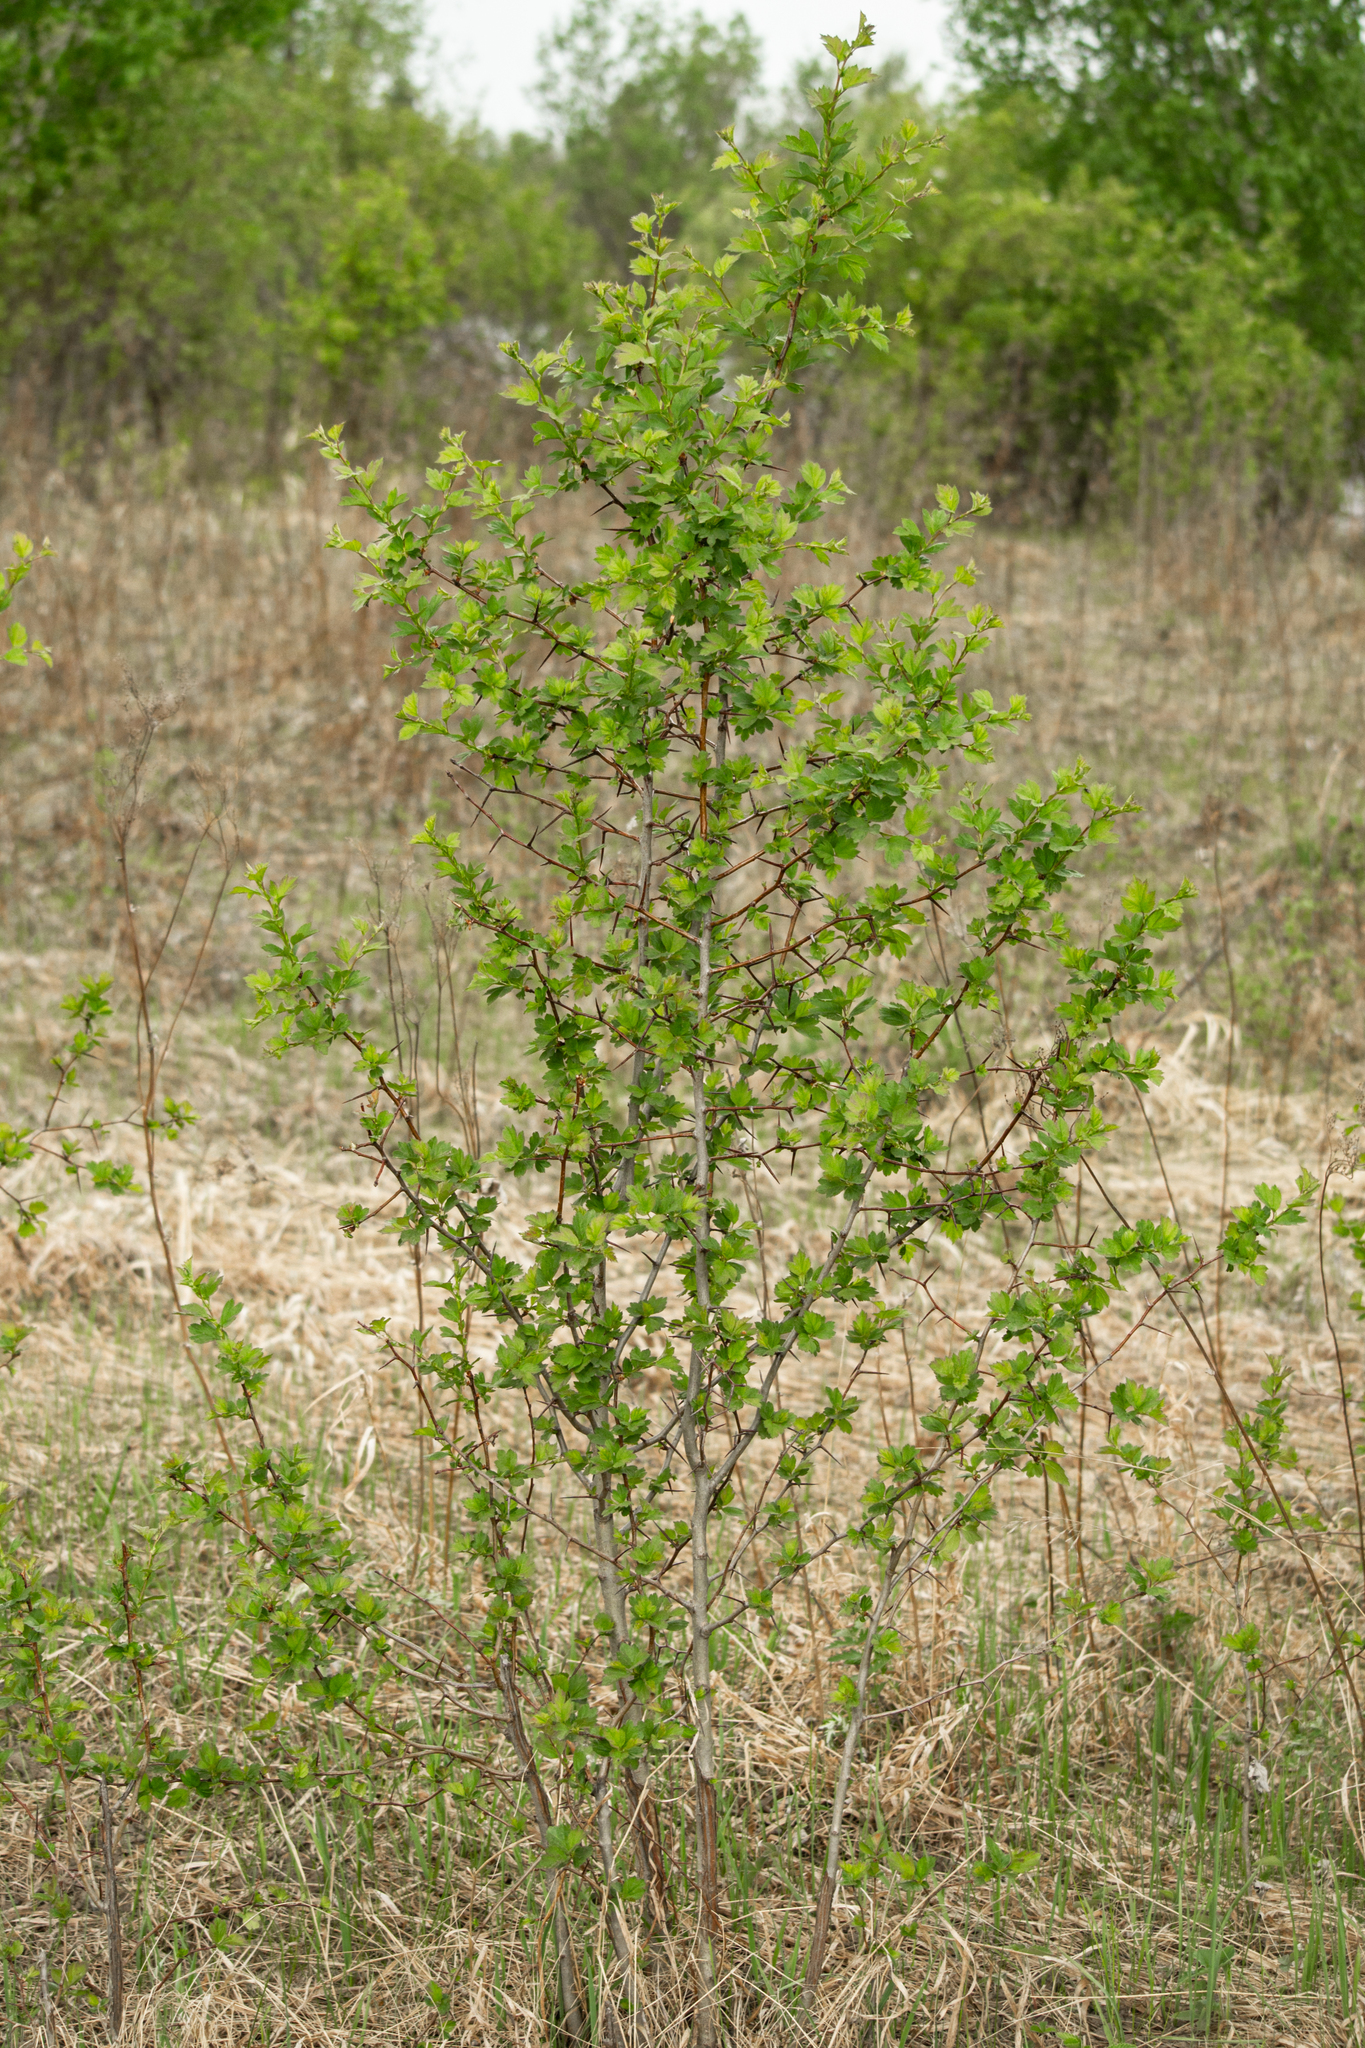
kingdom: Plantae
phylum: Tracheophyta
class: Magnoliopsida
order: Rosales
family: Rosaceae
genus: Crataegus
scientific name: Crataegus sanguinea
